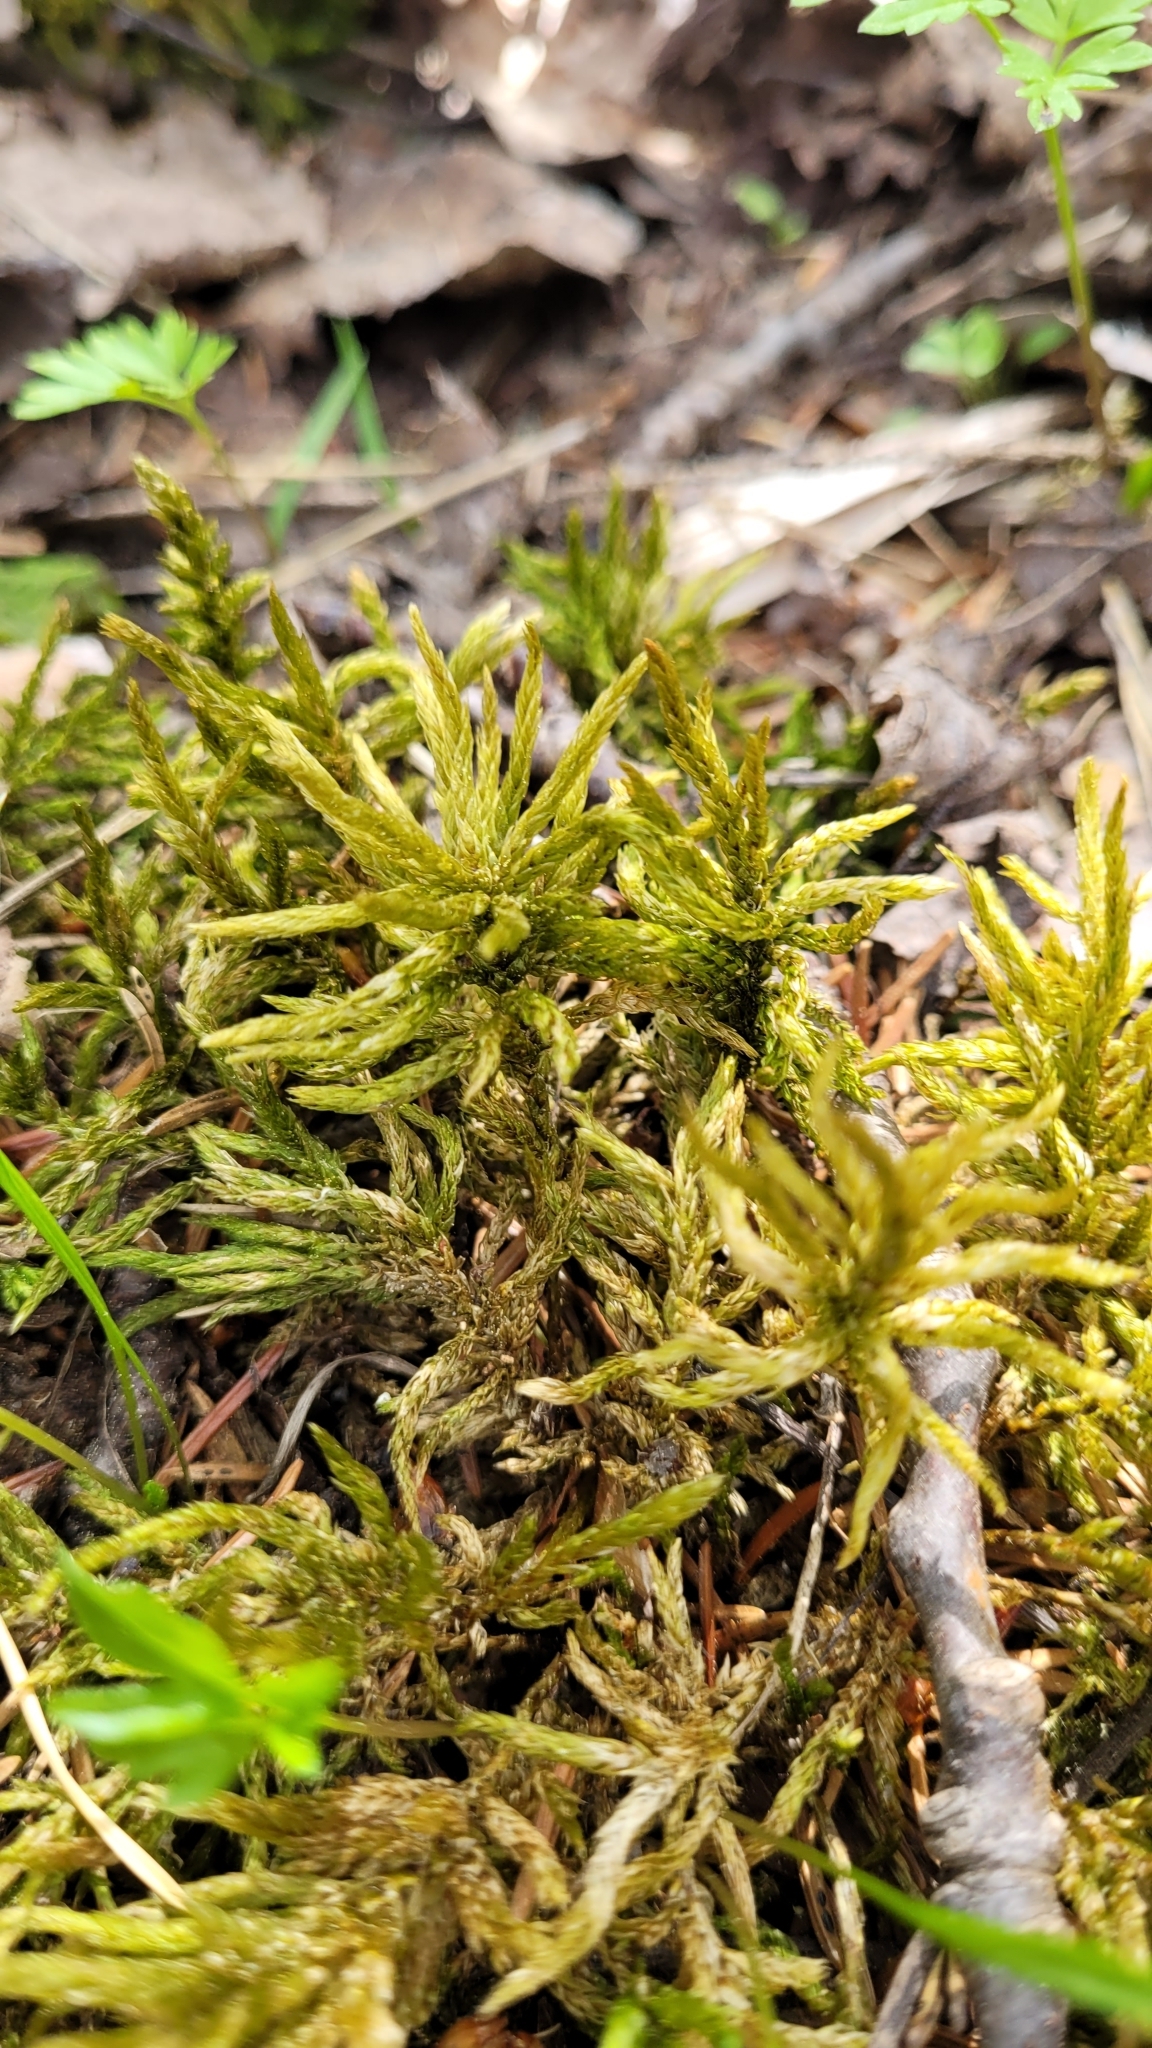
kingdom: Plantae
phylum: Bryophyta
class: Bryopsida
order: Hypnales
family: Climaciaceae
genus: Climacium
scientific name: Climacium dendroides
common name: Northern tree moss
